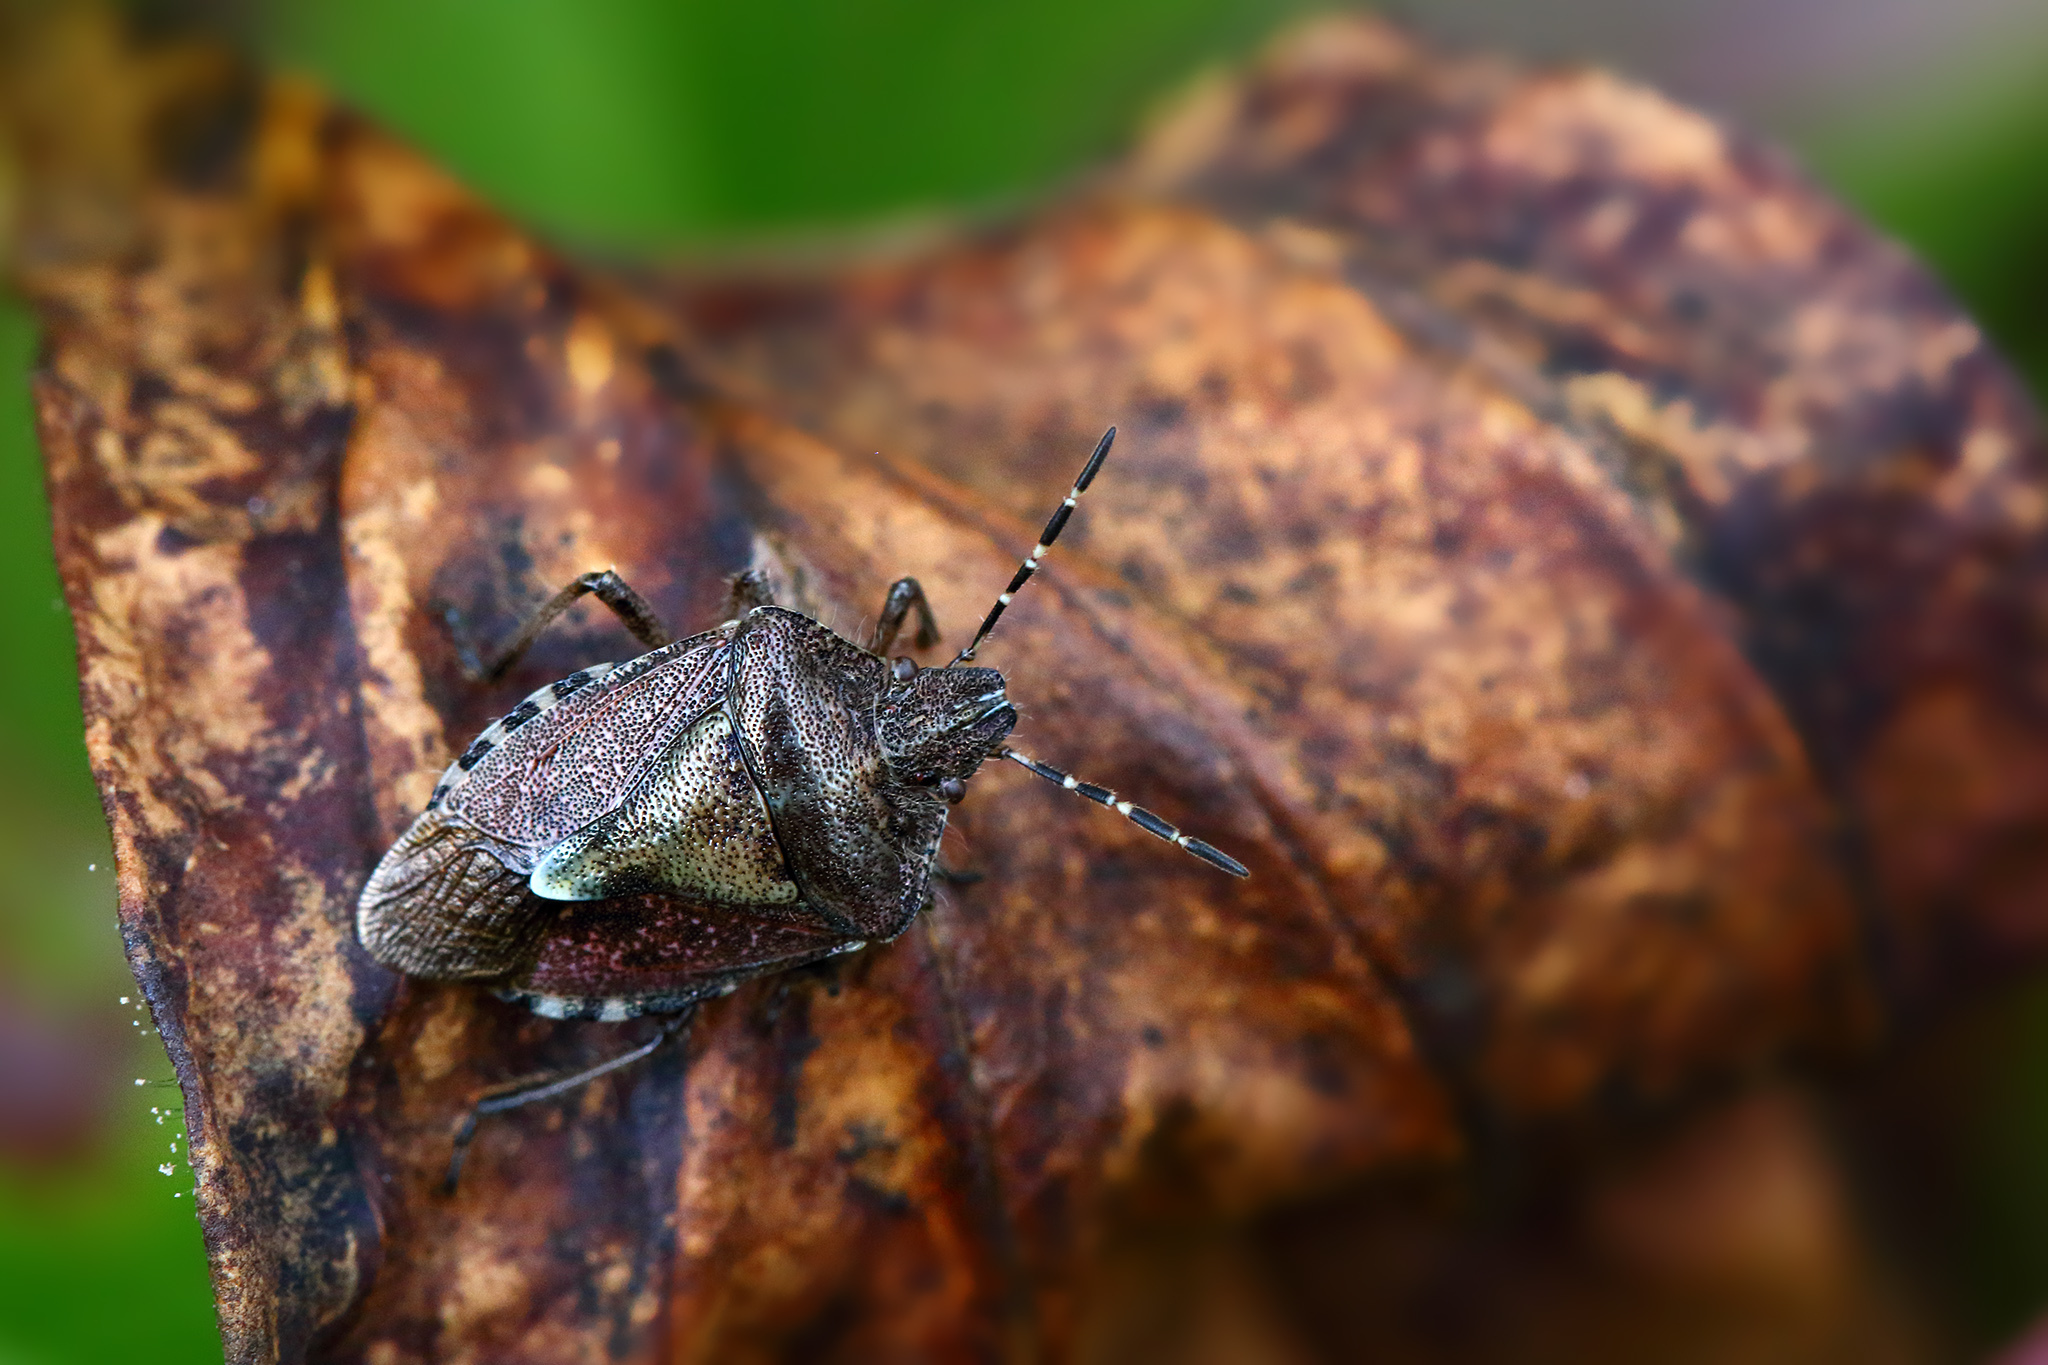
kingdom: Animalia
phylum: Arthropoda
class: Insecta
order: Hemiptera
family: Pentatomidae
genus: Dolycoris
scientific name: Dolycoris baccarum
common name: Sloe bug
